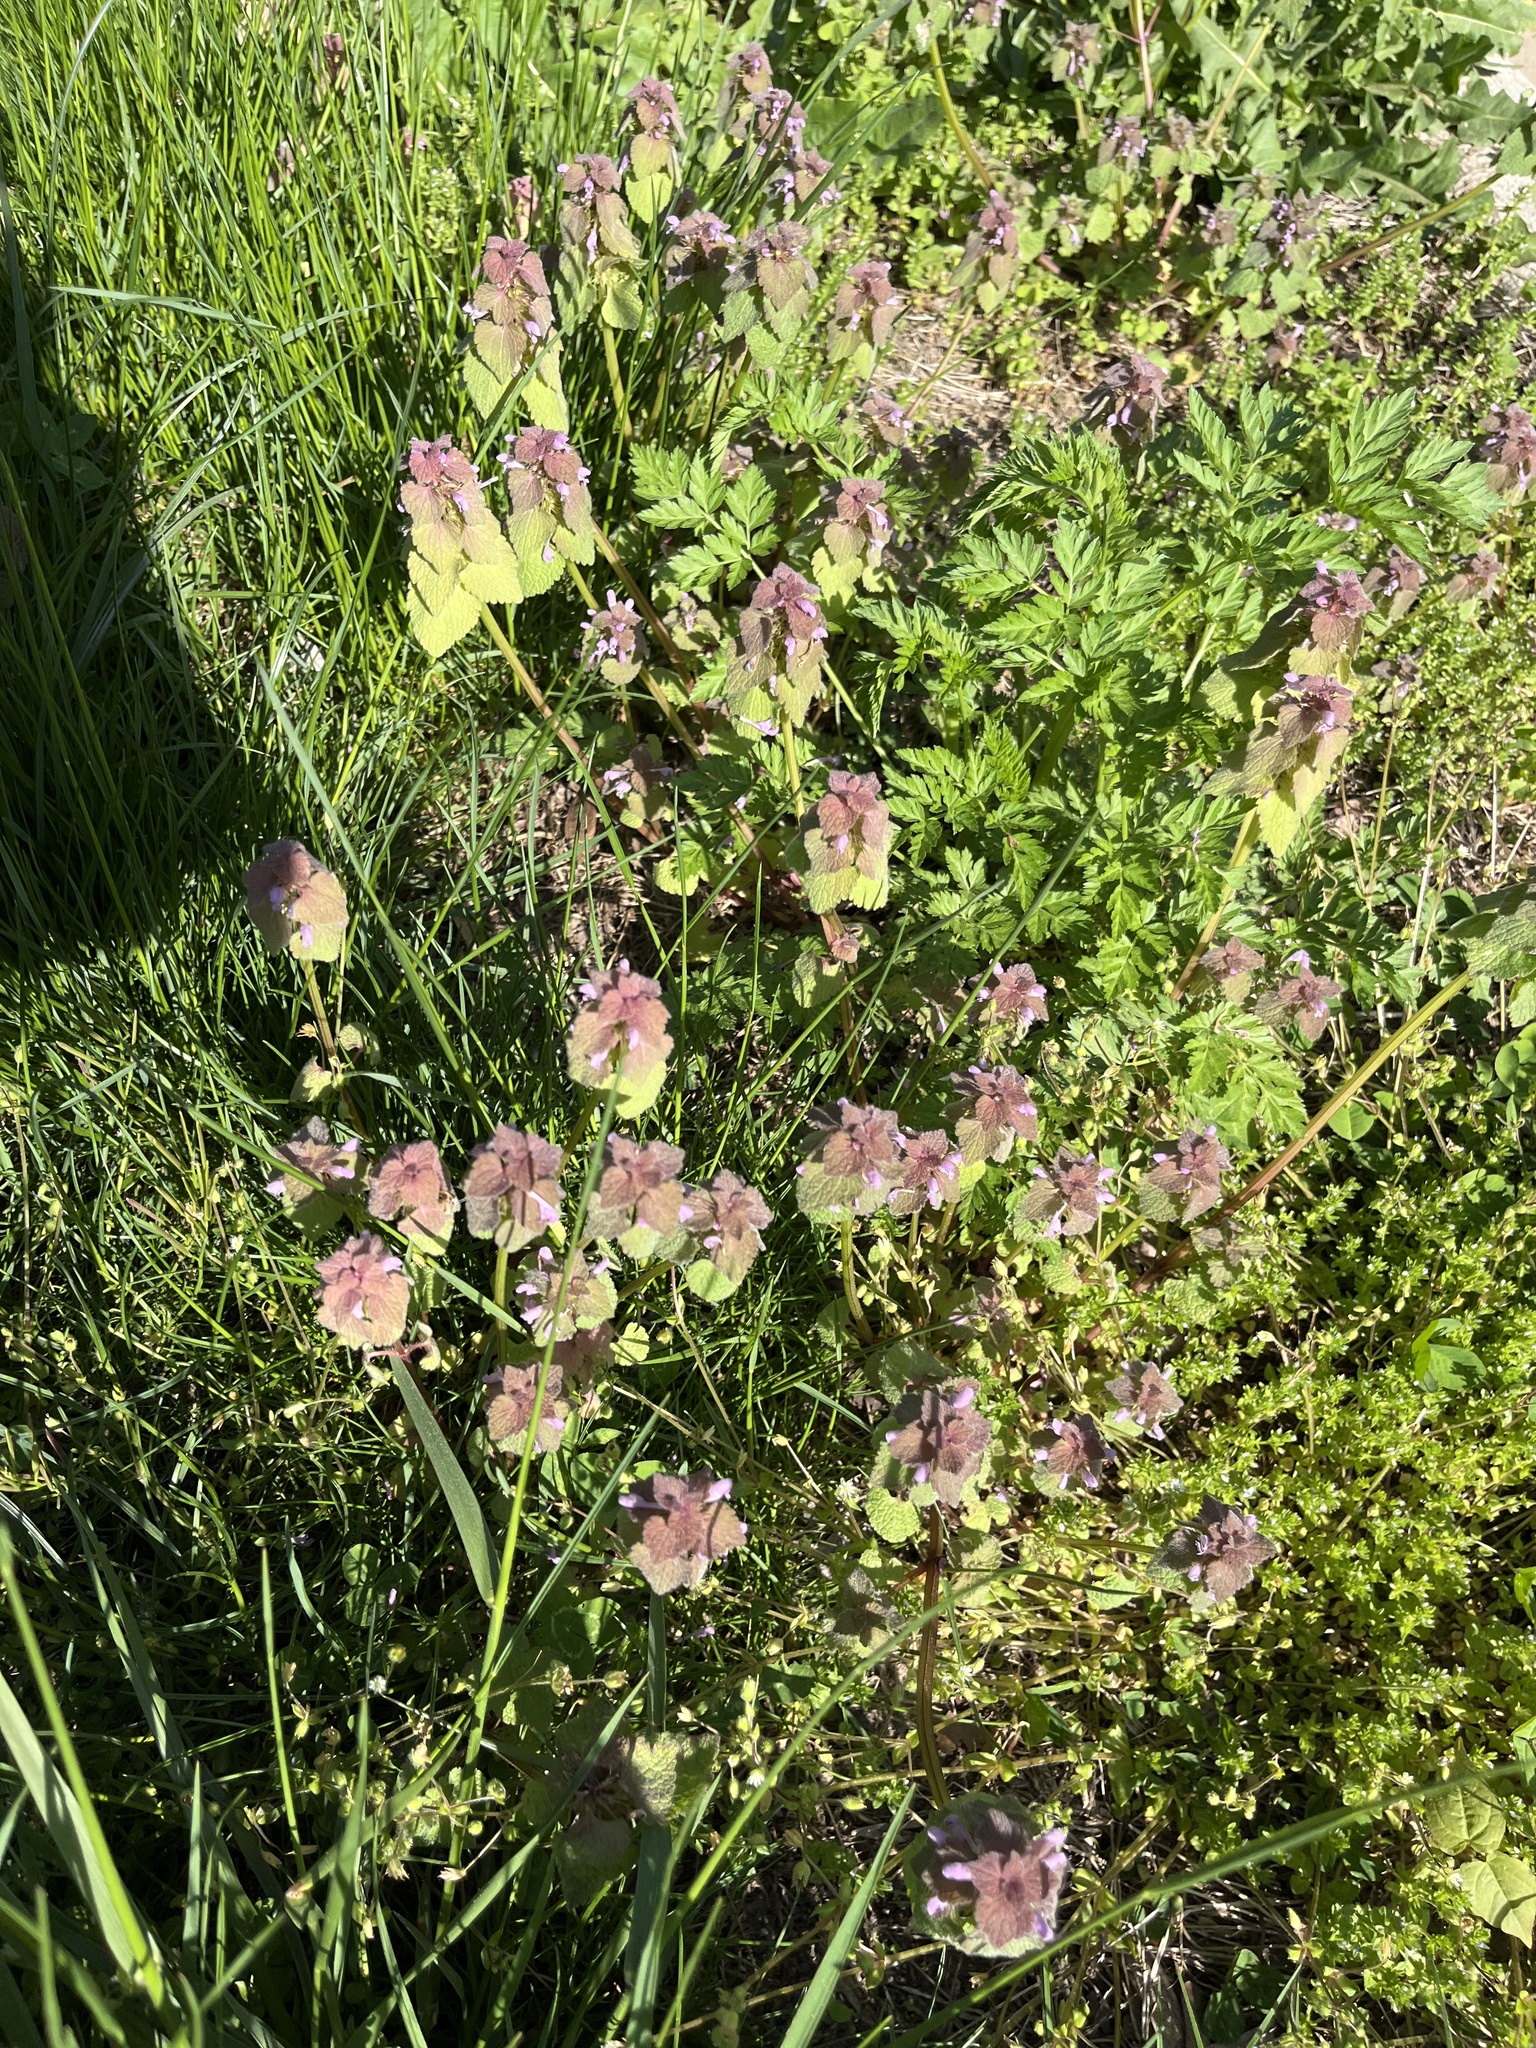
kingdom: Plantae
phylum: Tracheophyta
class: Magnoliopsida
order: Lamiales
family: Lamiaceae
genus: Lamium
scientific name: Lamium purpureum
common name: Red dead-nettle
